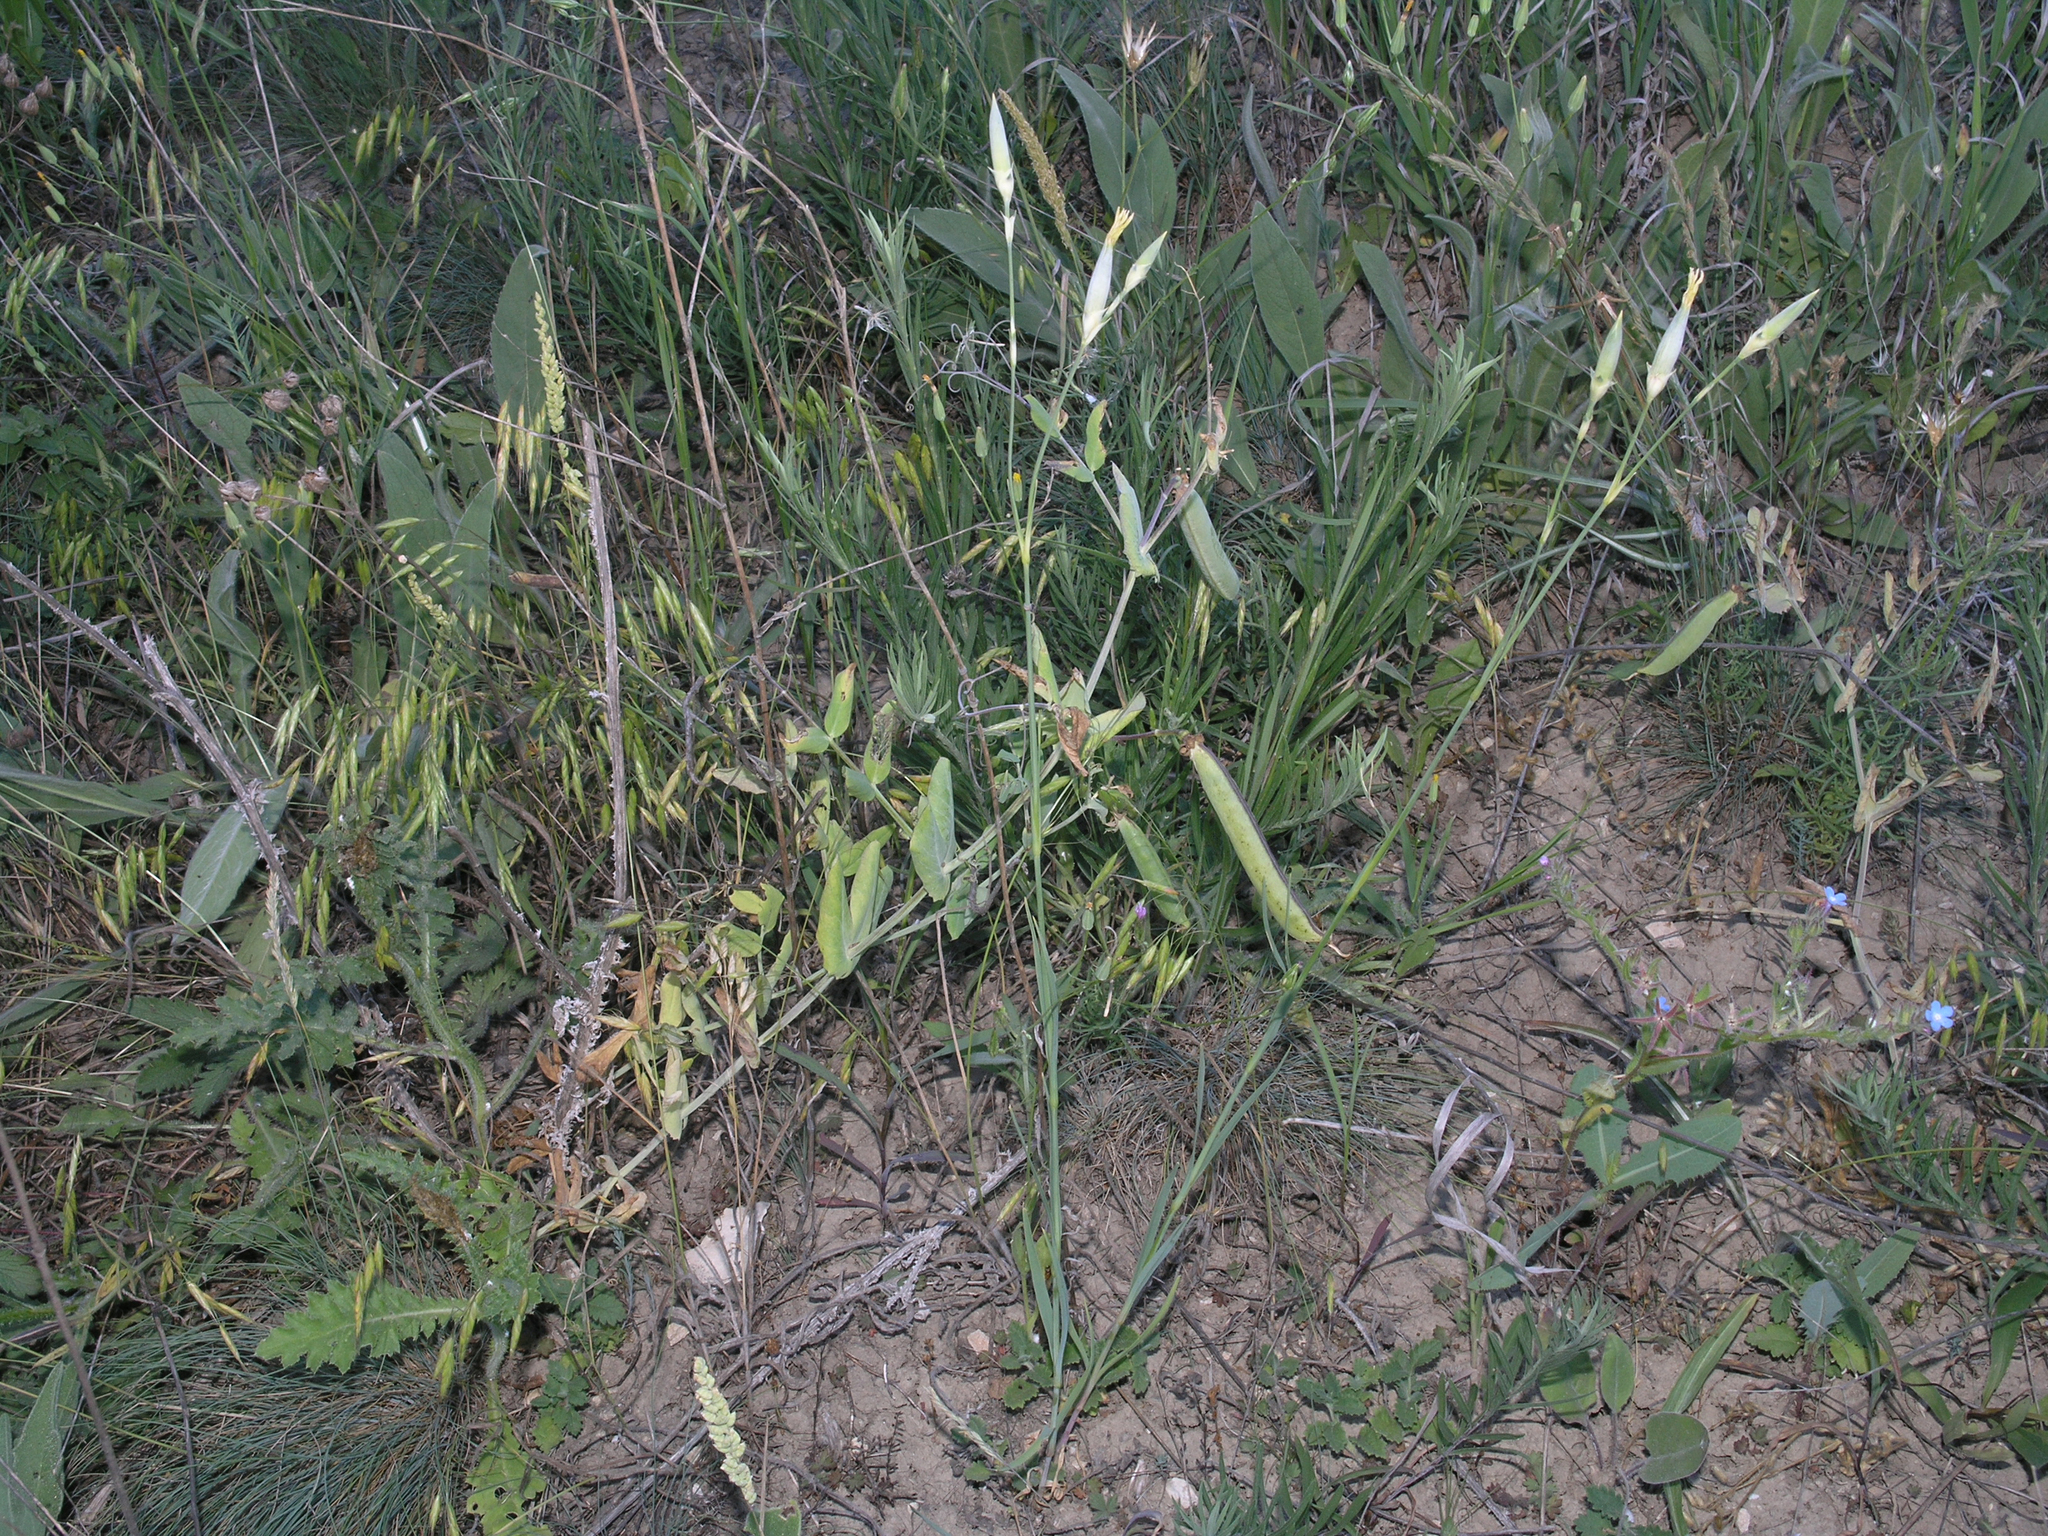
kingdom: Plantae
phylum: Tracheophyta
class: Magnoliopsida
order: Fabales
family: Fabaceae
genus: Lathyrus
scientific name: Lathyrus oleraceus
